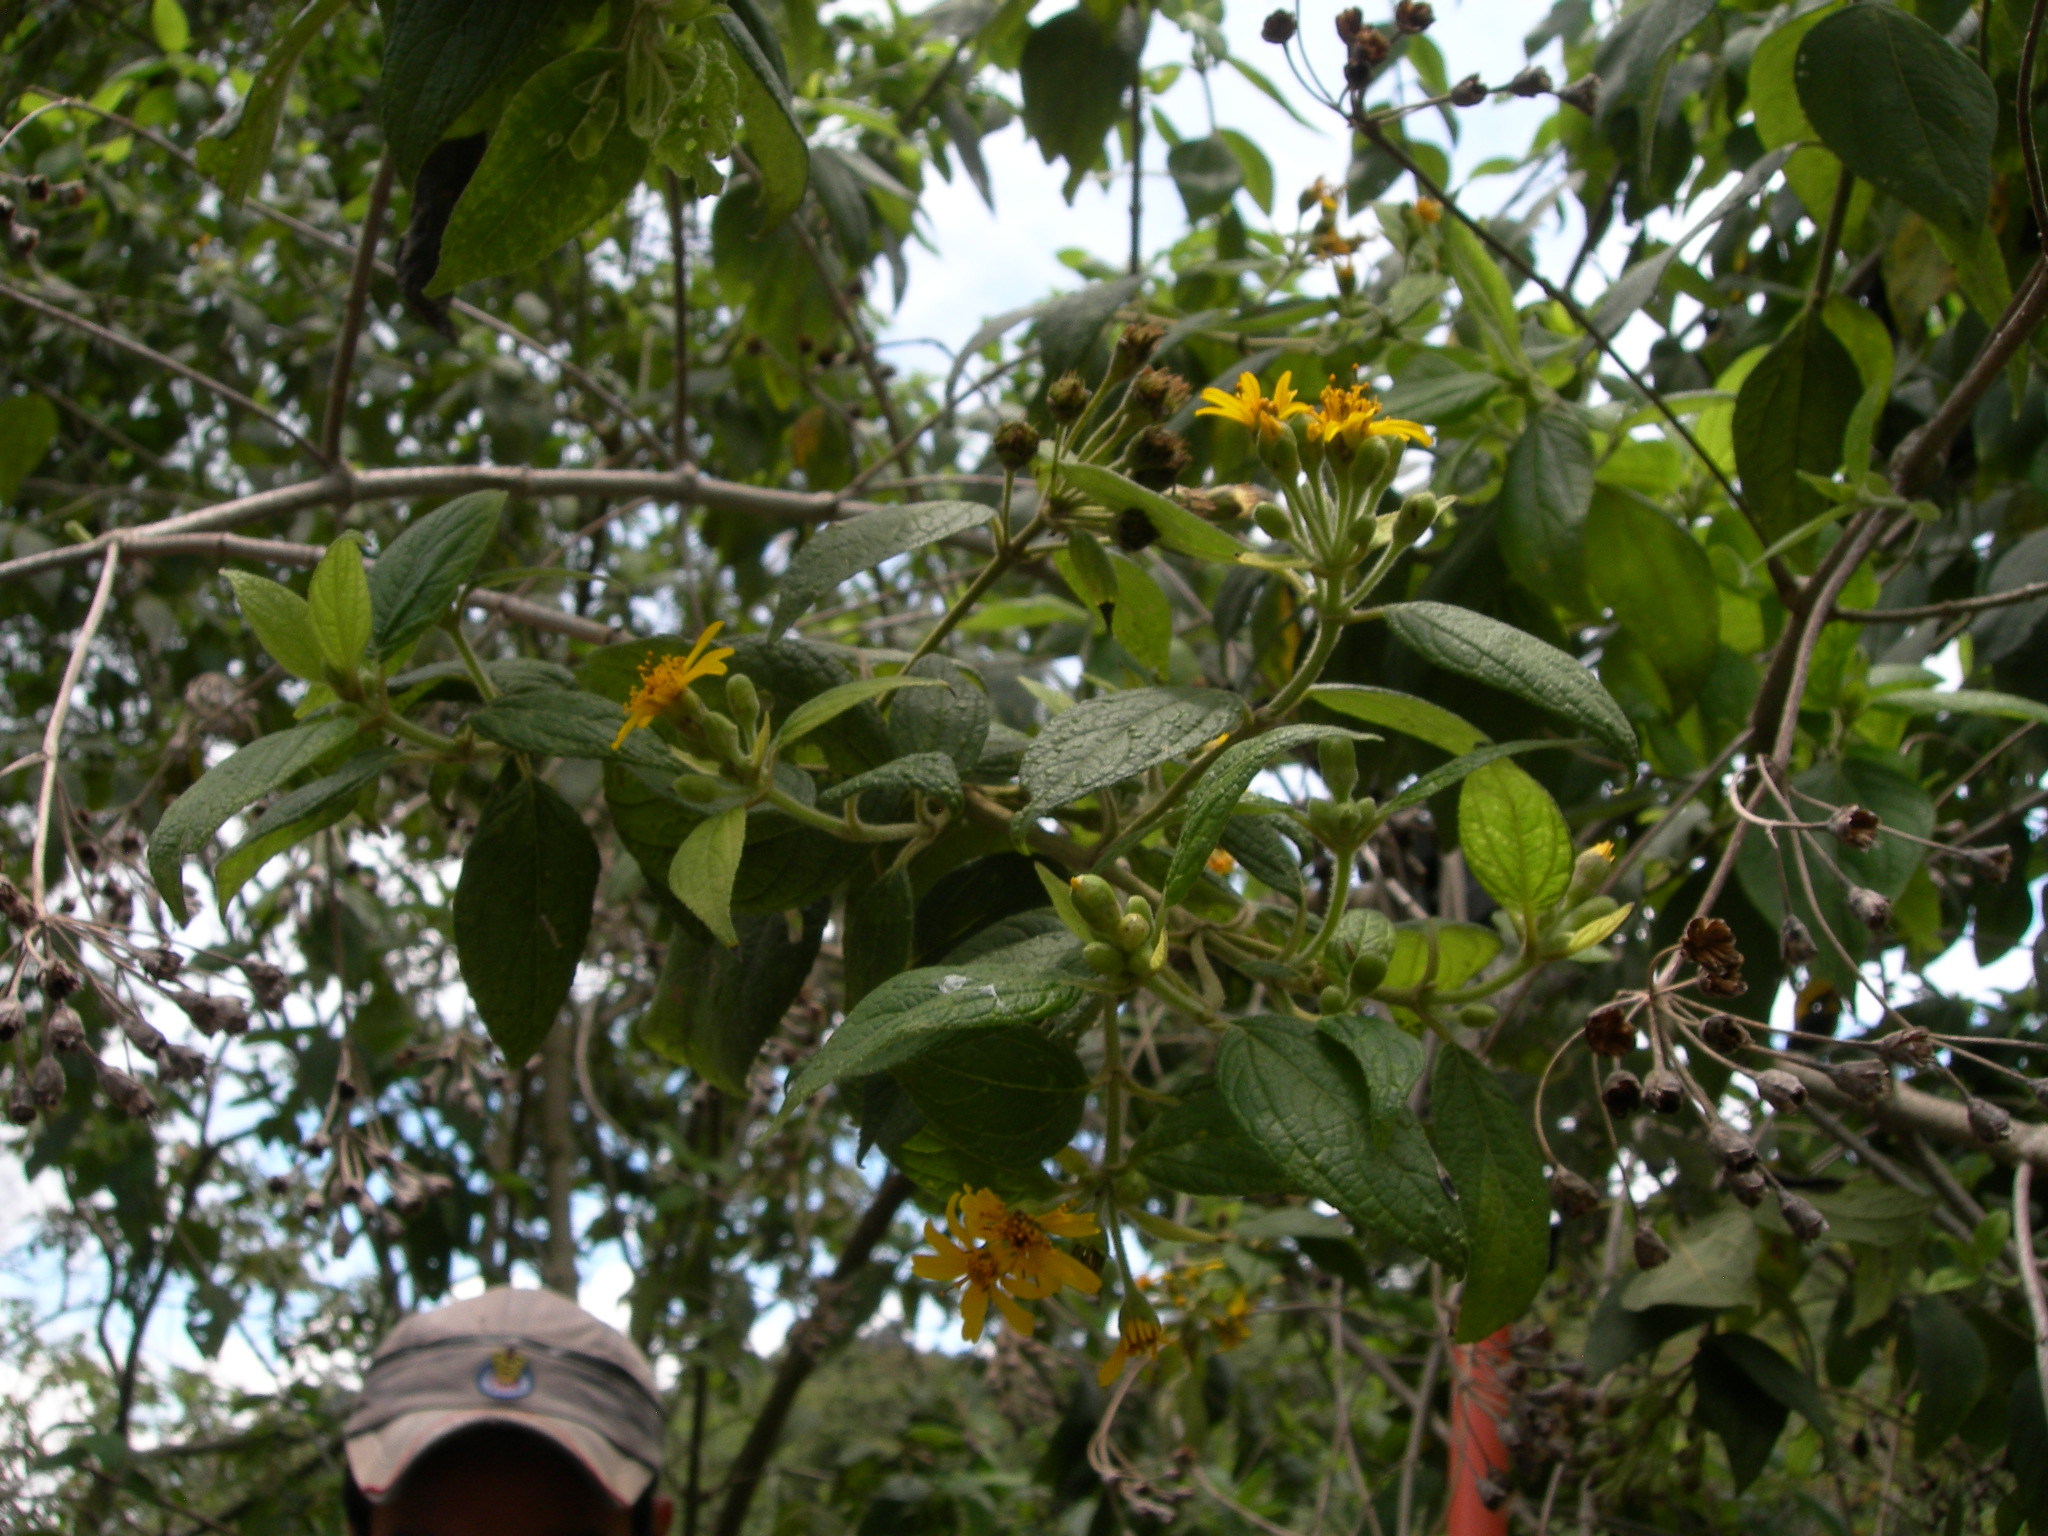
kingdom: Plantae
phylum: Tracheophyta
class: Magnoliopsida
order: Asterales
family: Asteraceae
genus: Perymenium
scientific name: Perymenium grande
